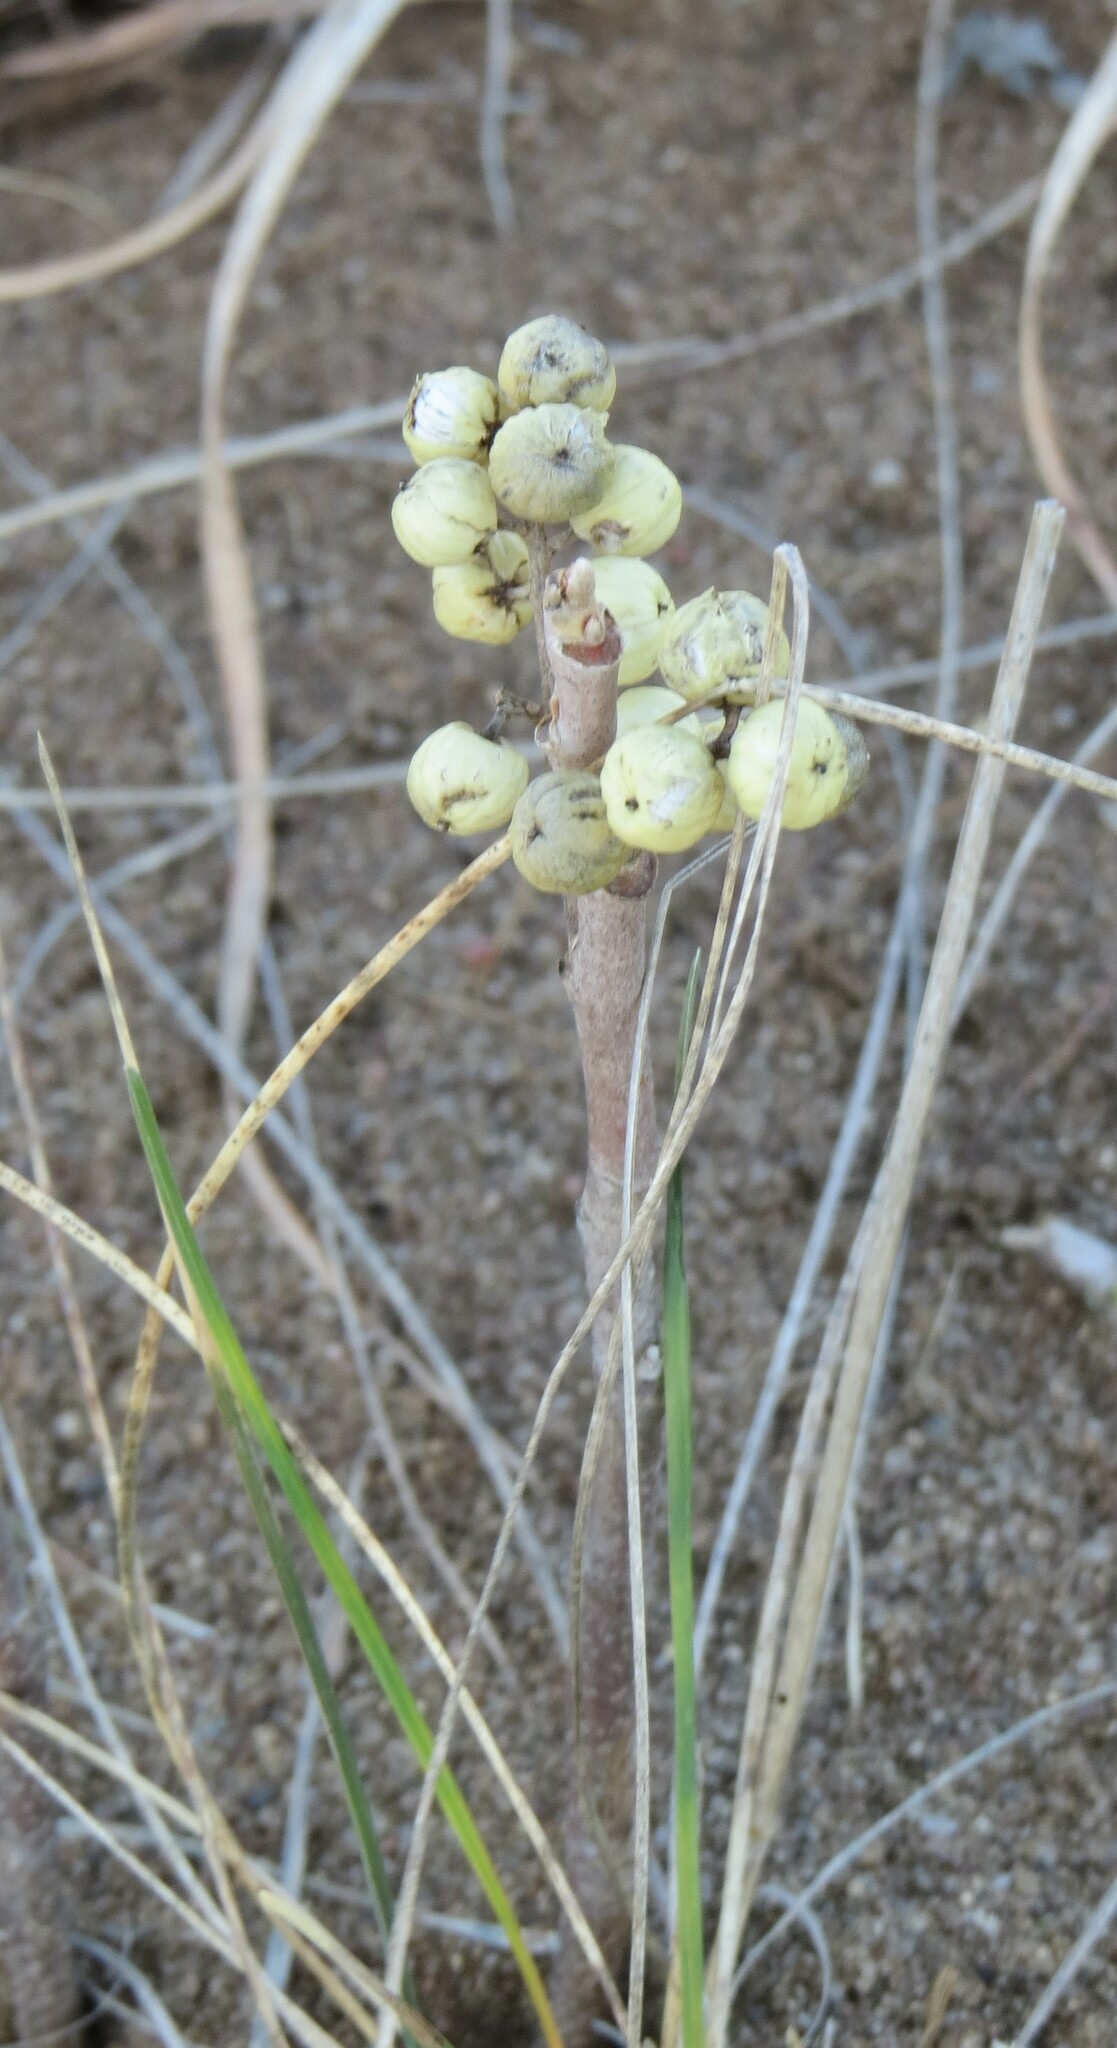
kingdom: Plantae
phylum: Tracheophyta
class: Magnoliopsida
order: Sapindales
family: Anacardiaceae
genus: Toxicodendron
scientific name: Toxicodendron rydbergii
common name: Rydberg's poison-ivy
